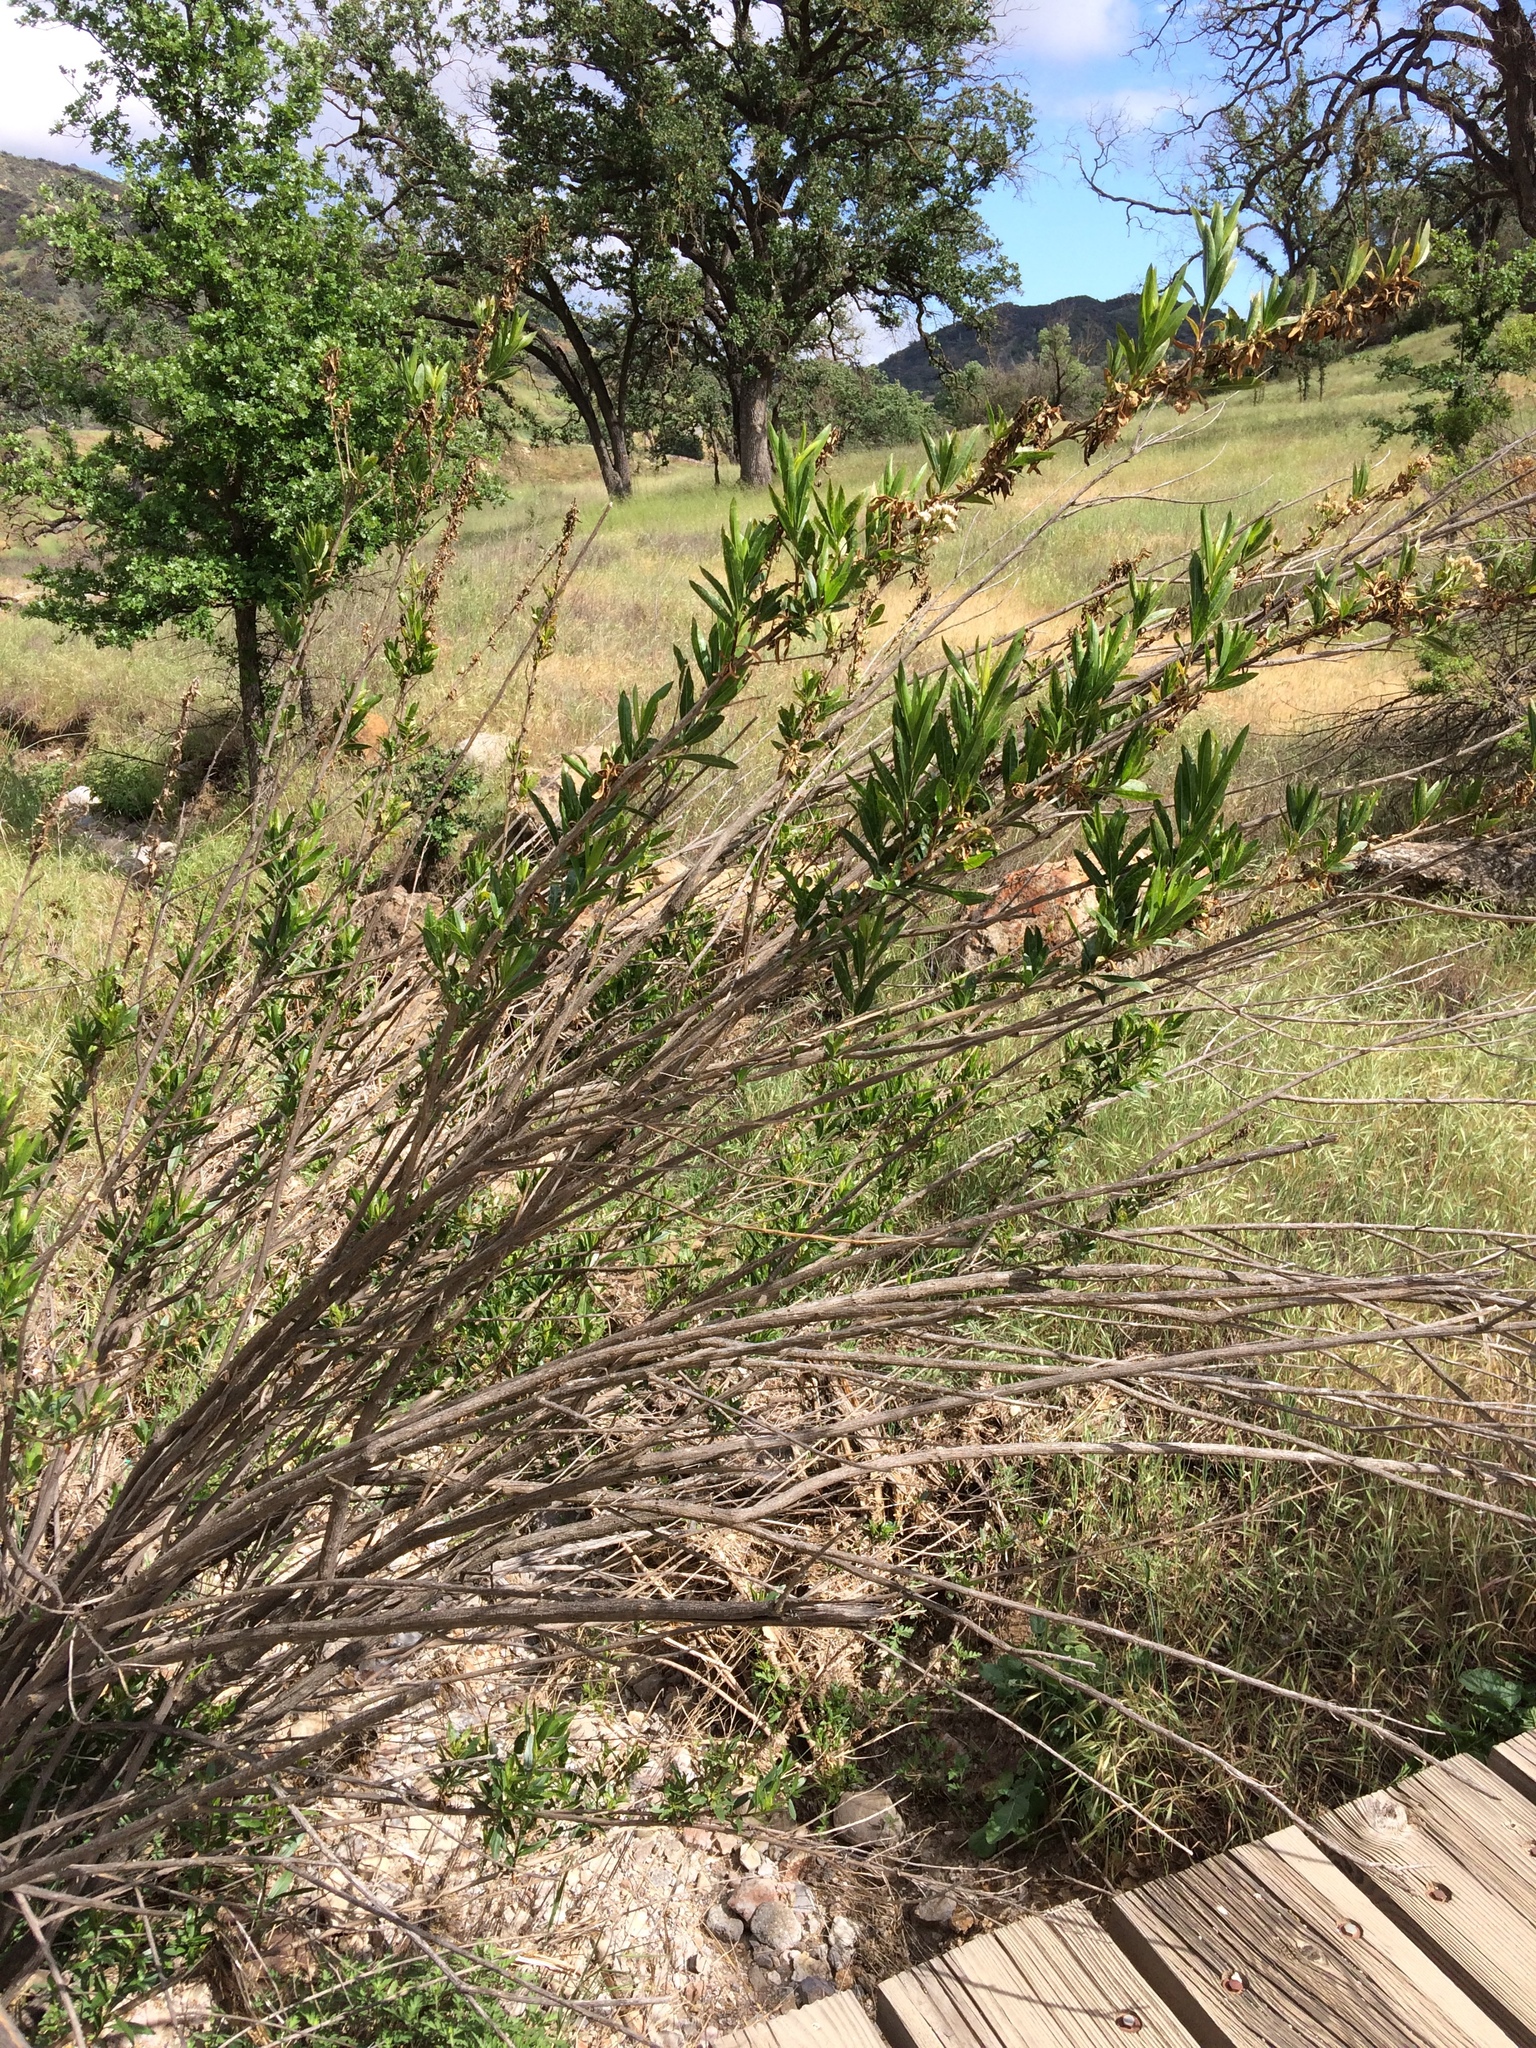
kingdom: Plantae
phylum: Tracheophyta
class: Magnoliopsida
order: Asterales
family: Asteraceae
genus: Baccharis
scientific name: Baccharis salicifolia
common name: Sticky baccharis
